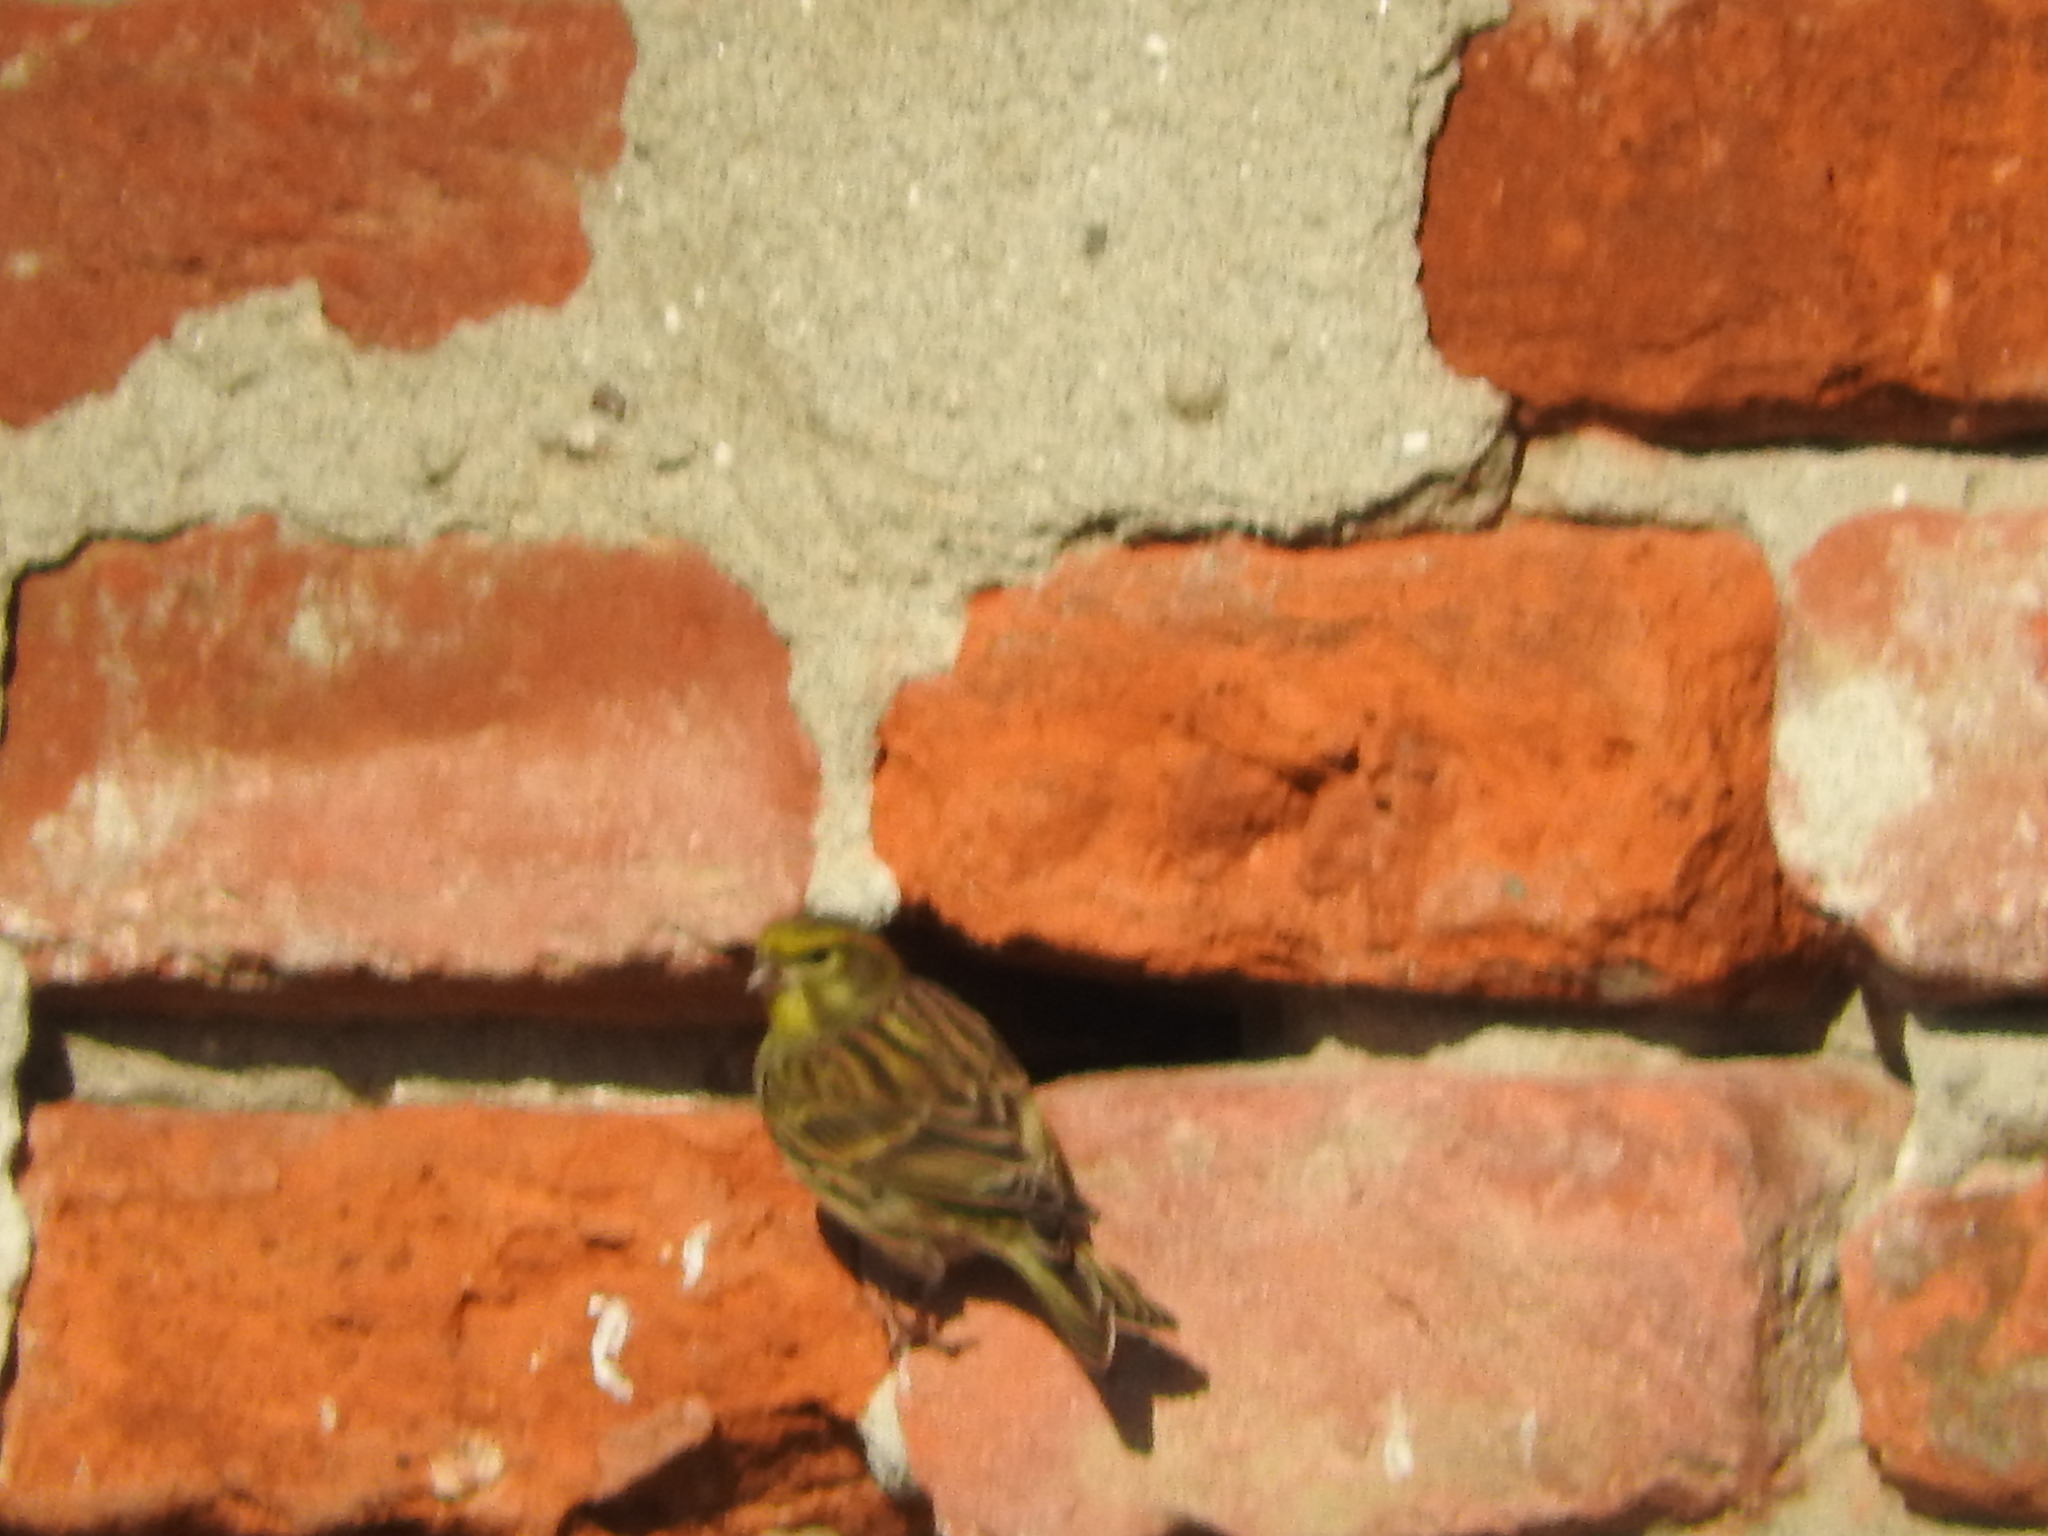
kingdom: Animalia
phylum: Chordata
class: Aves
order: Passeriformes
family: Fringillidae
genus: Serinus
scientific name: Serinus serinus
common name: European serin
